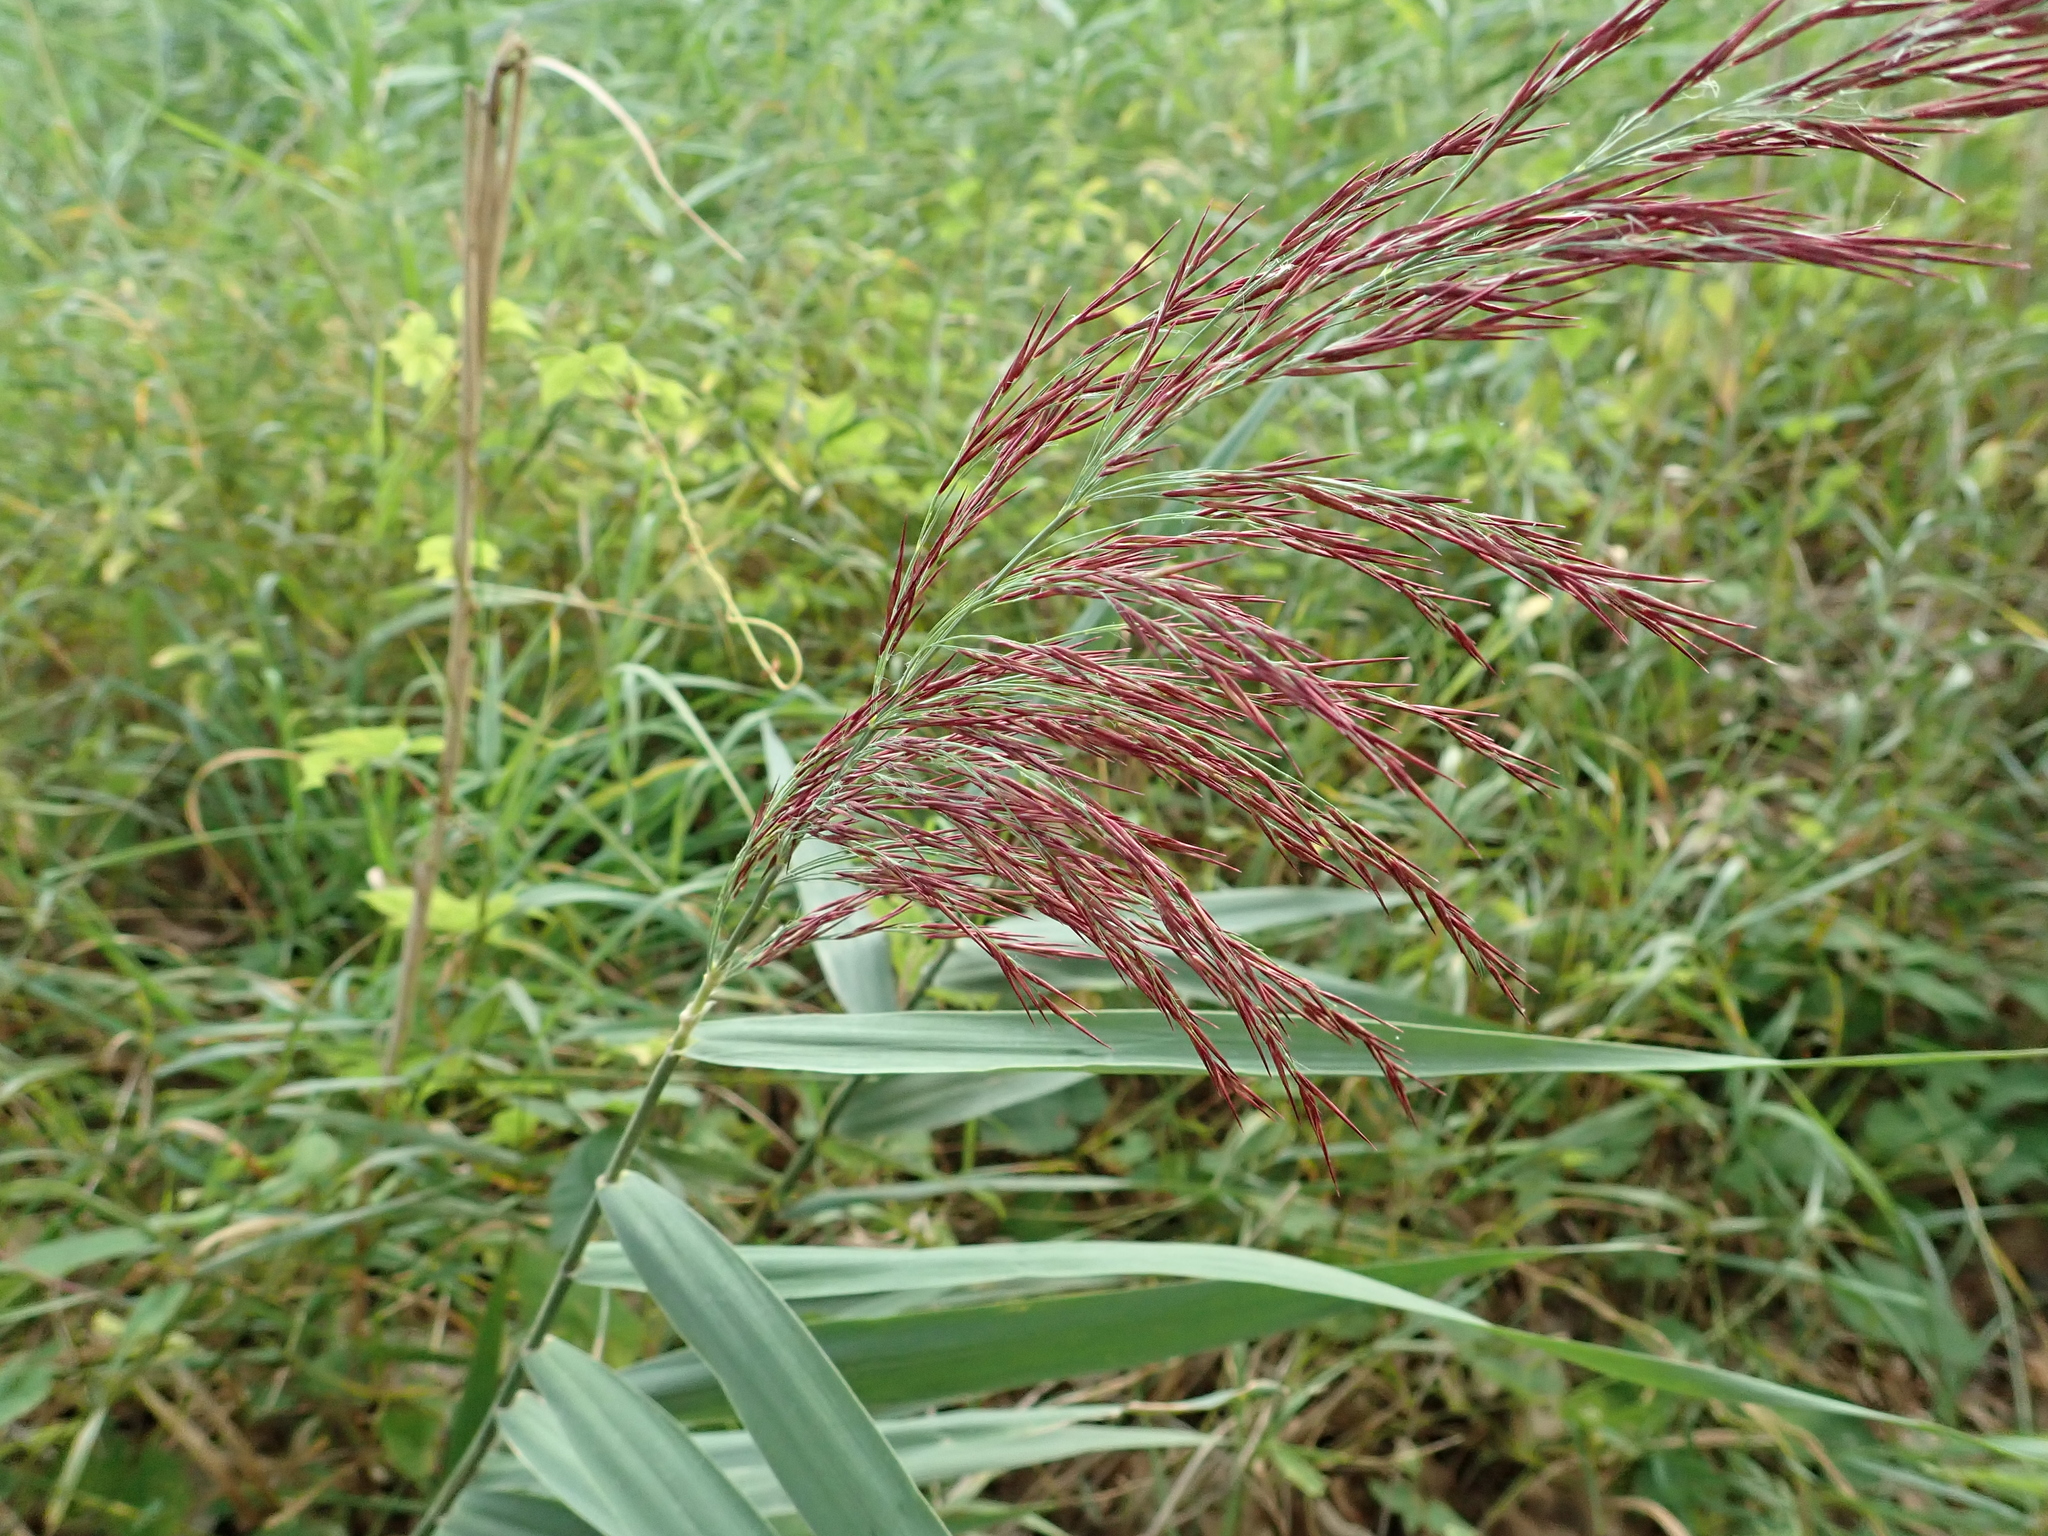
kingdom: Plantae
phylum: Tracheophyta
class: Liliopsida
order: Poales
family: Poaceae
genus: Phragmites
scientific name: Phragmites australis
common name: Common reed
